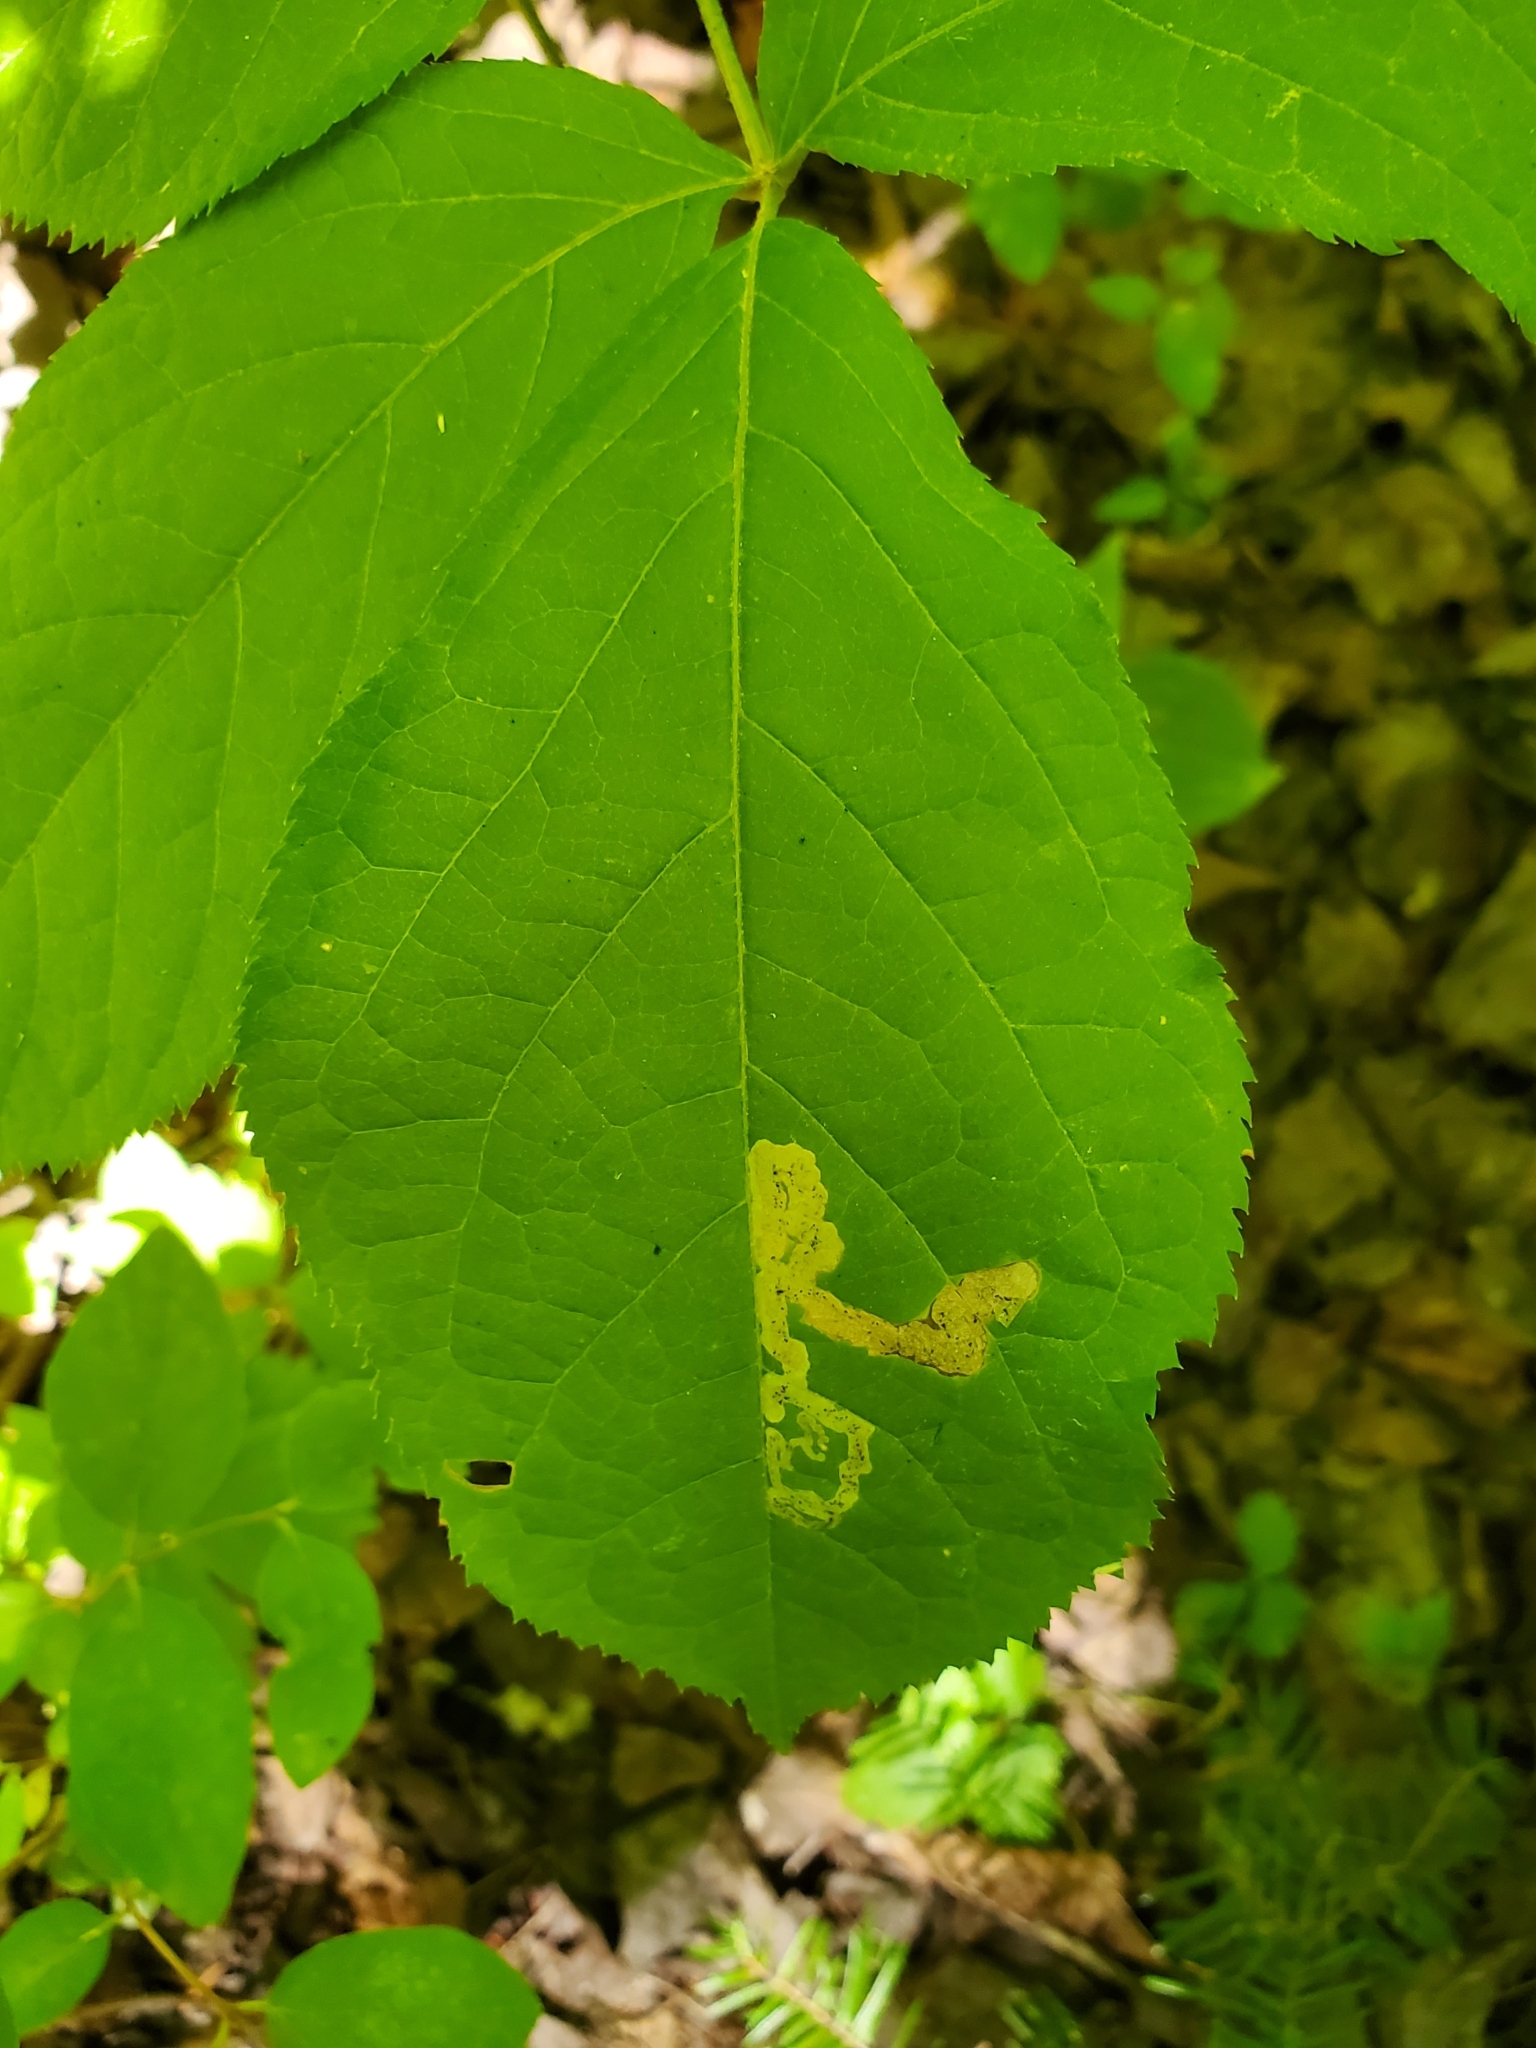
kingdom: Animalia
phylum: Arthropoda
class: Insecta
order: Diptera
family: Agromyzidae
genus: Phytomyza
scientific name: Phytomyza aralivora
